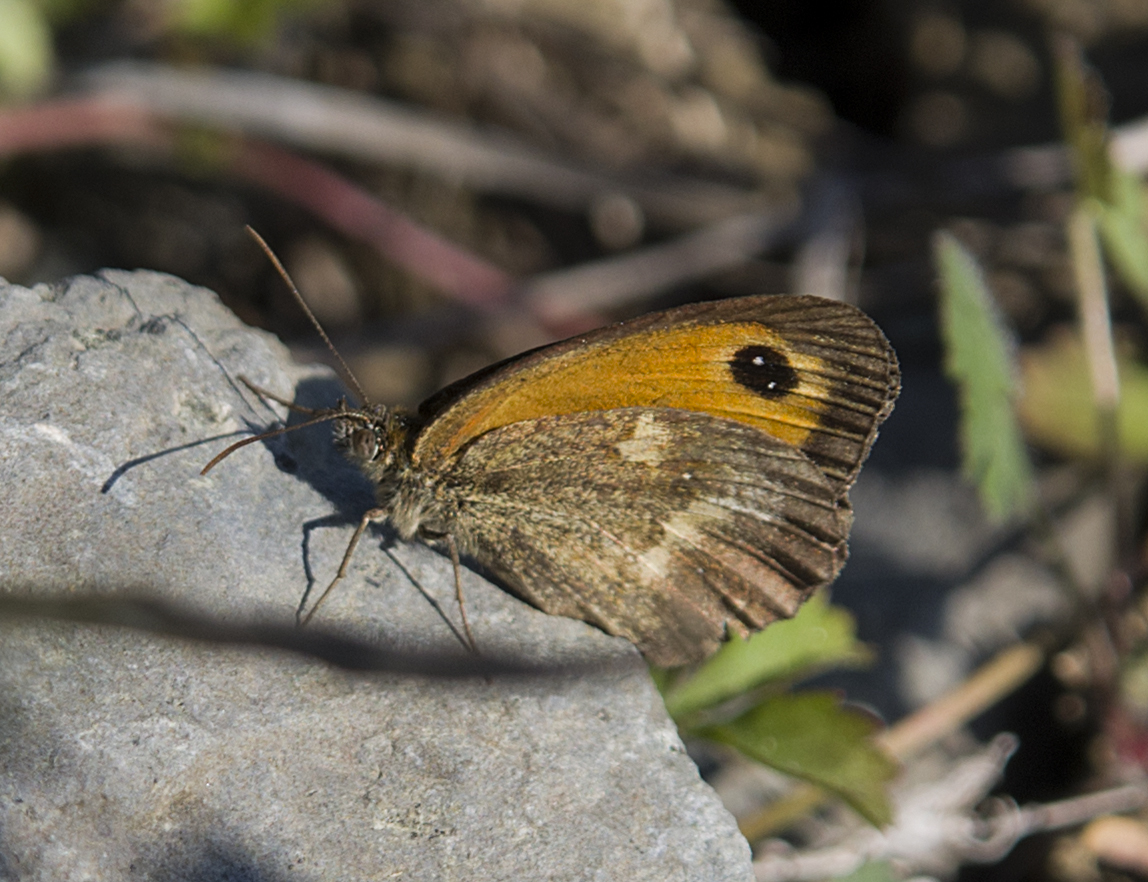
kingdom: Animalia
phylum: Arthropoda
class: Insecta
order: Lepidoptera
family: Nymphalidae
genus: Pyronia
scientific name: Pyronia tithonus
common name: Gatekeeper
